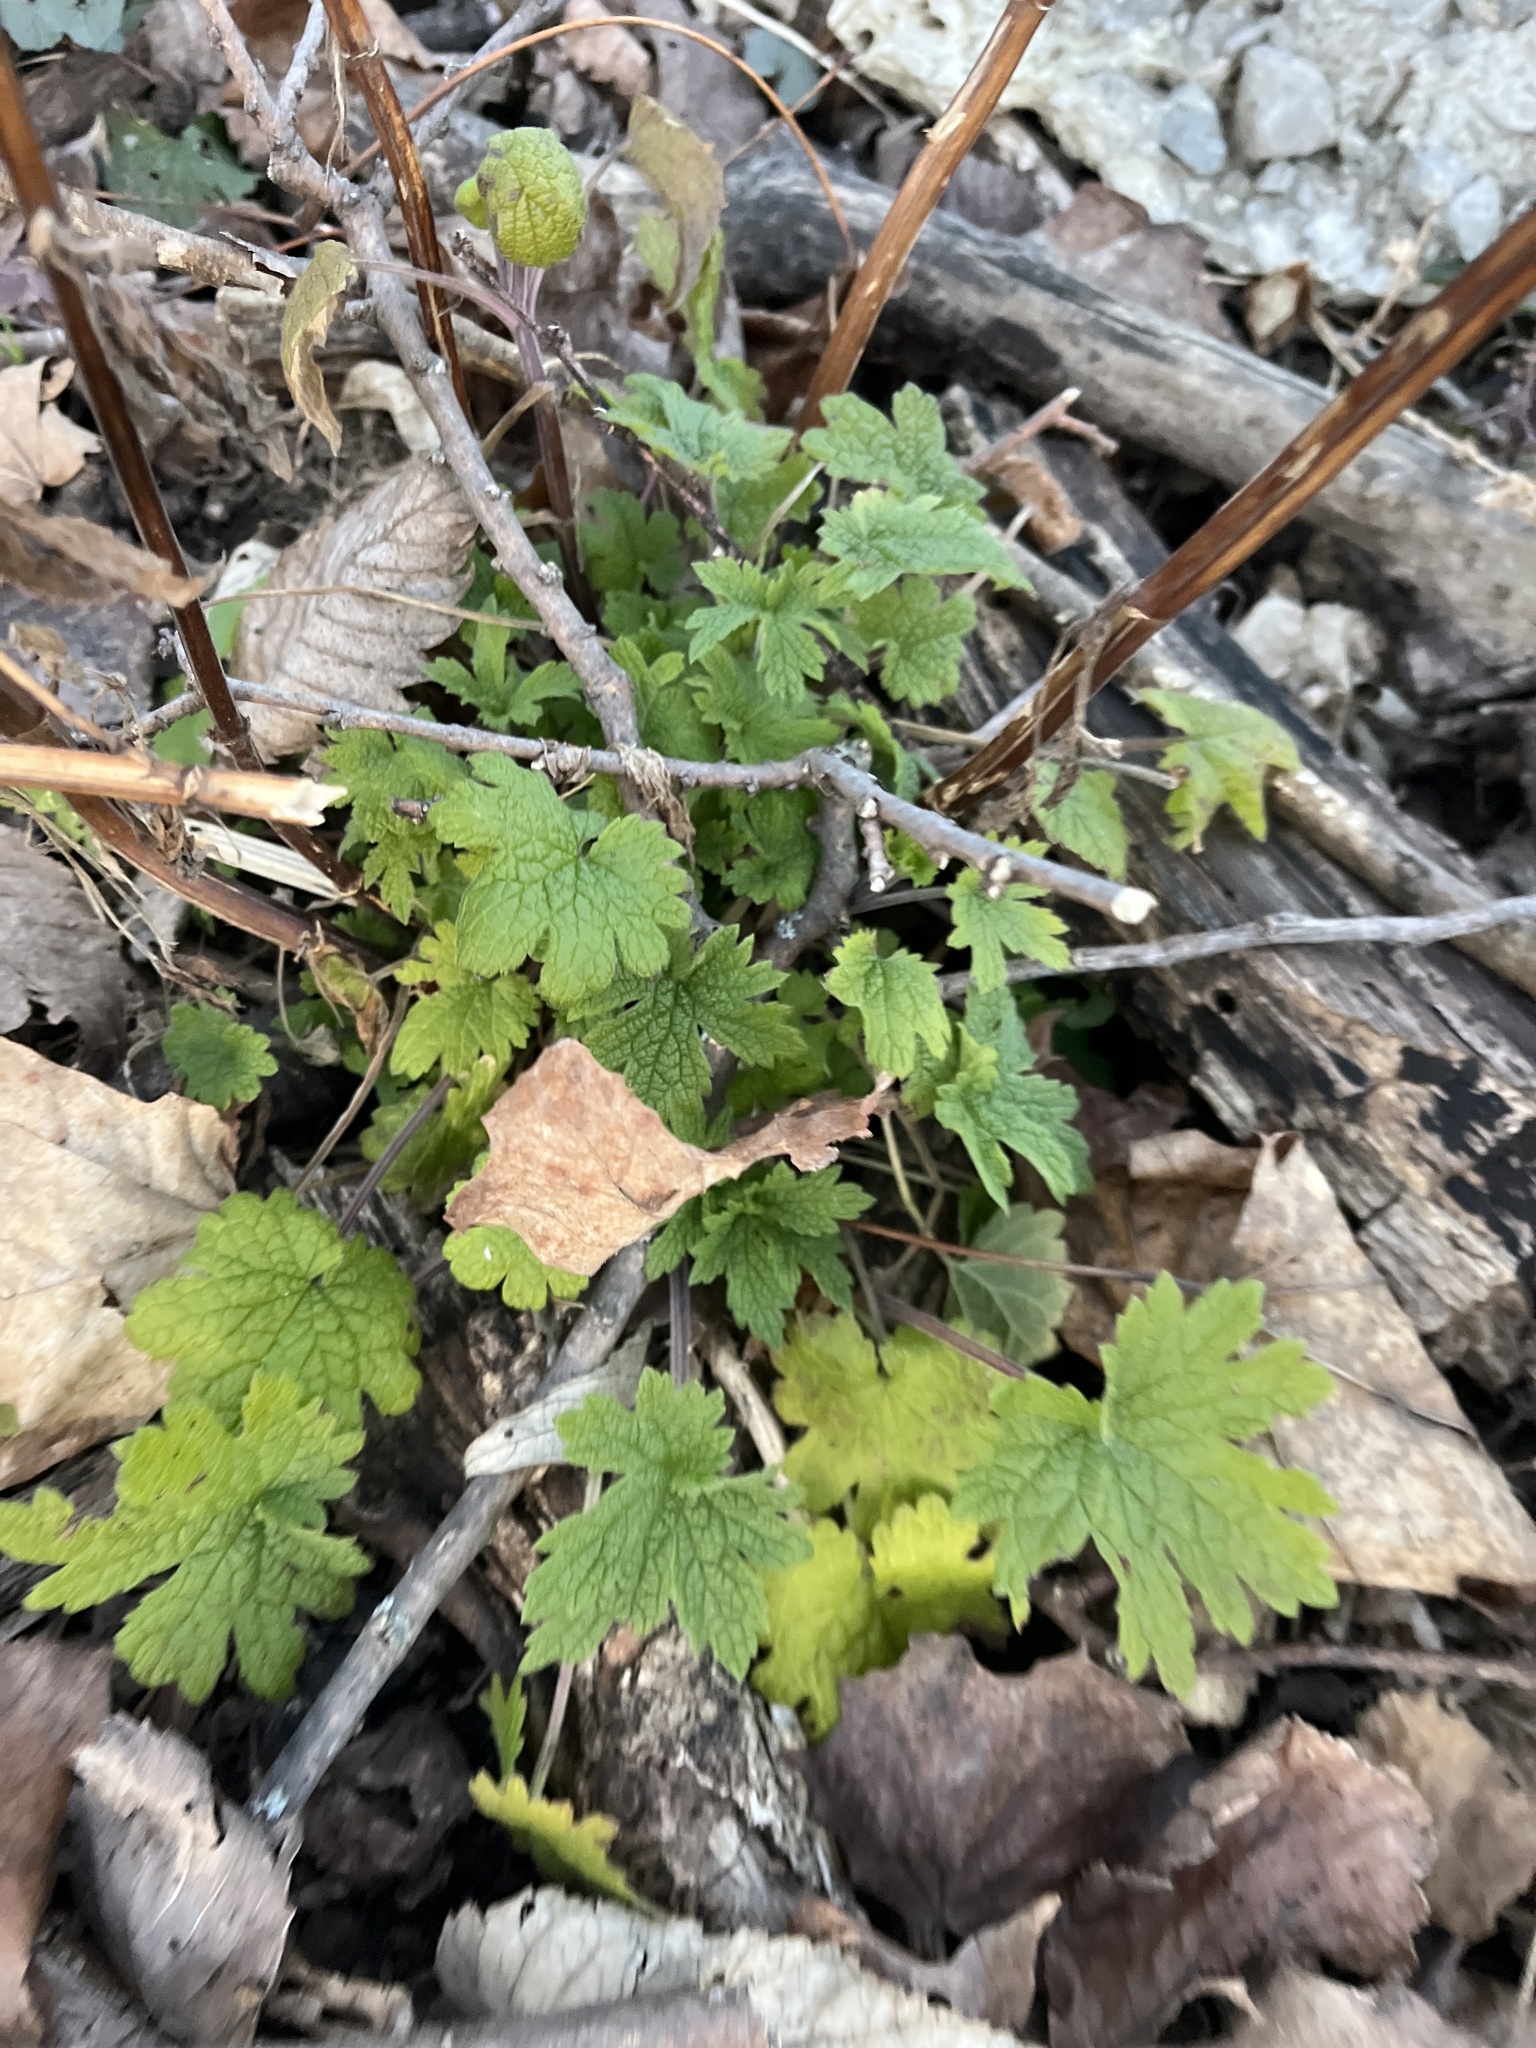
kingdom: Plantae
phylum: Tracheophyta
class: Magnoliopsida
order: Lamiales
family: Lamiaceae
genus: Leonurus
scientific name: Leonurus cardiaca
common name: Motherwort
